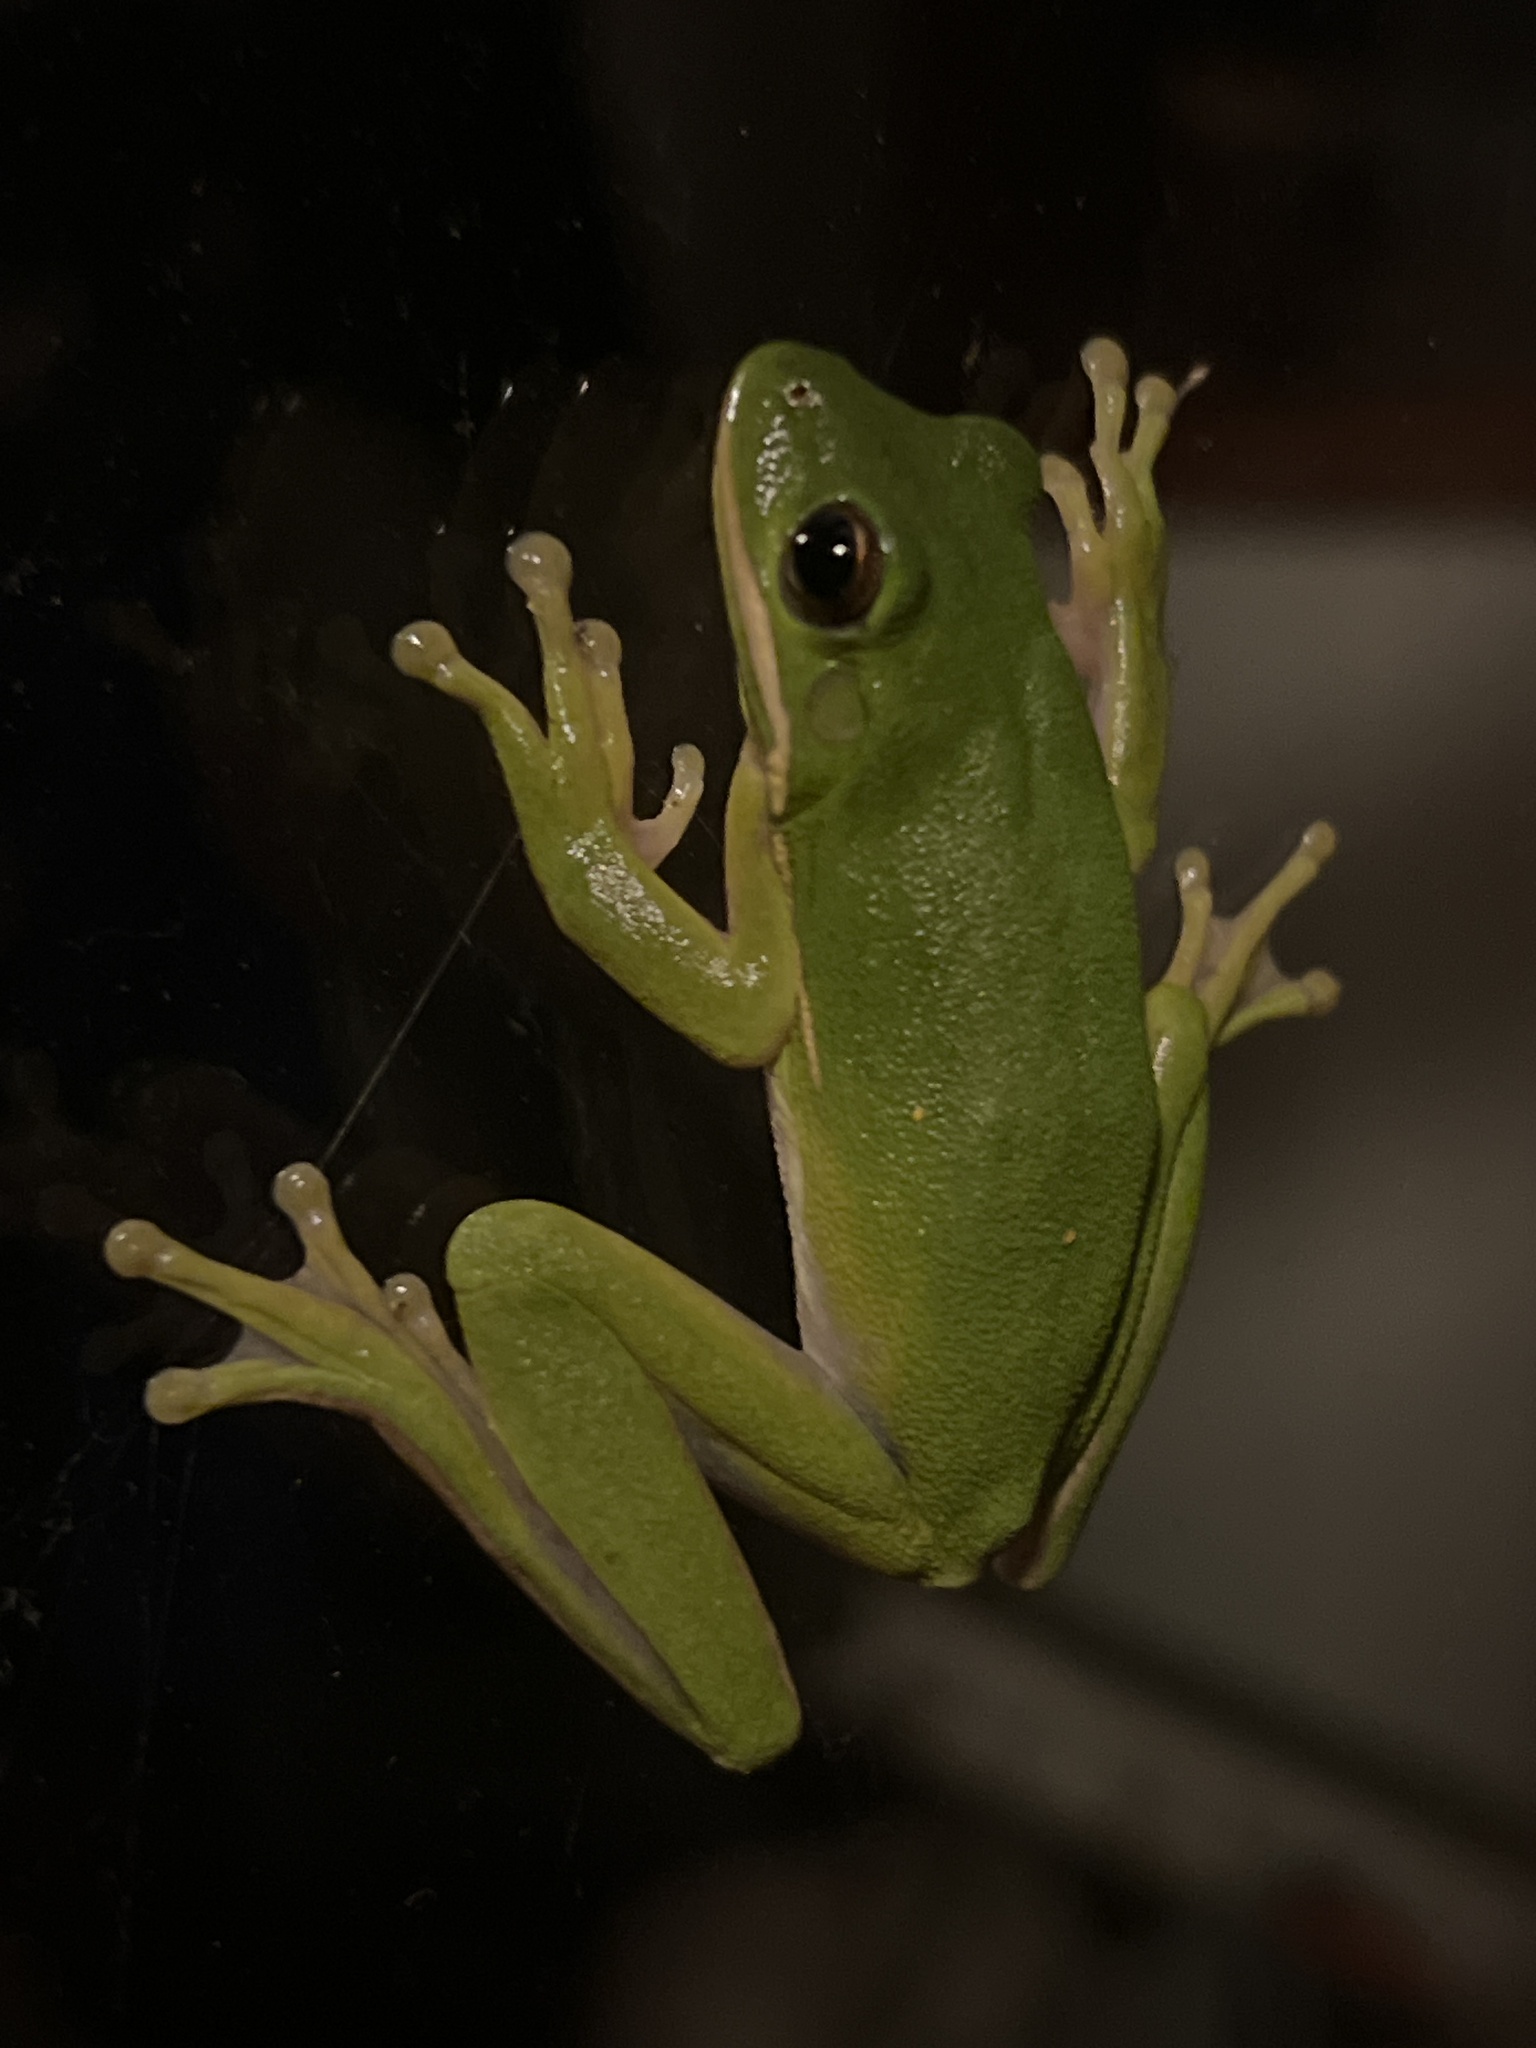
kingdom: Animalia
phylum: Chordata
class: Amphibia
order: Anura
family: Hylidae
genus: Dryophytes
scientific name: Dryophytes cinereus
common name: Green treefrog
